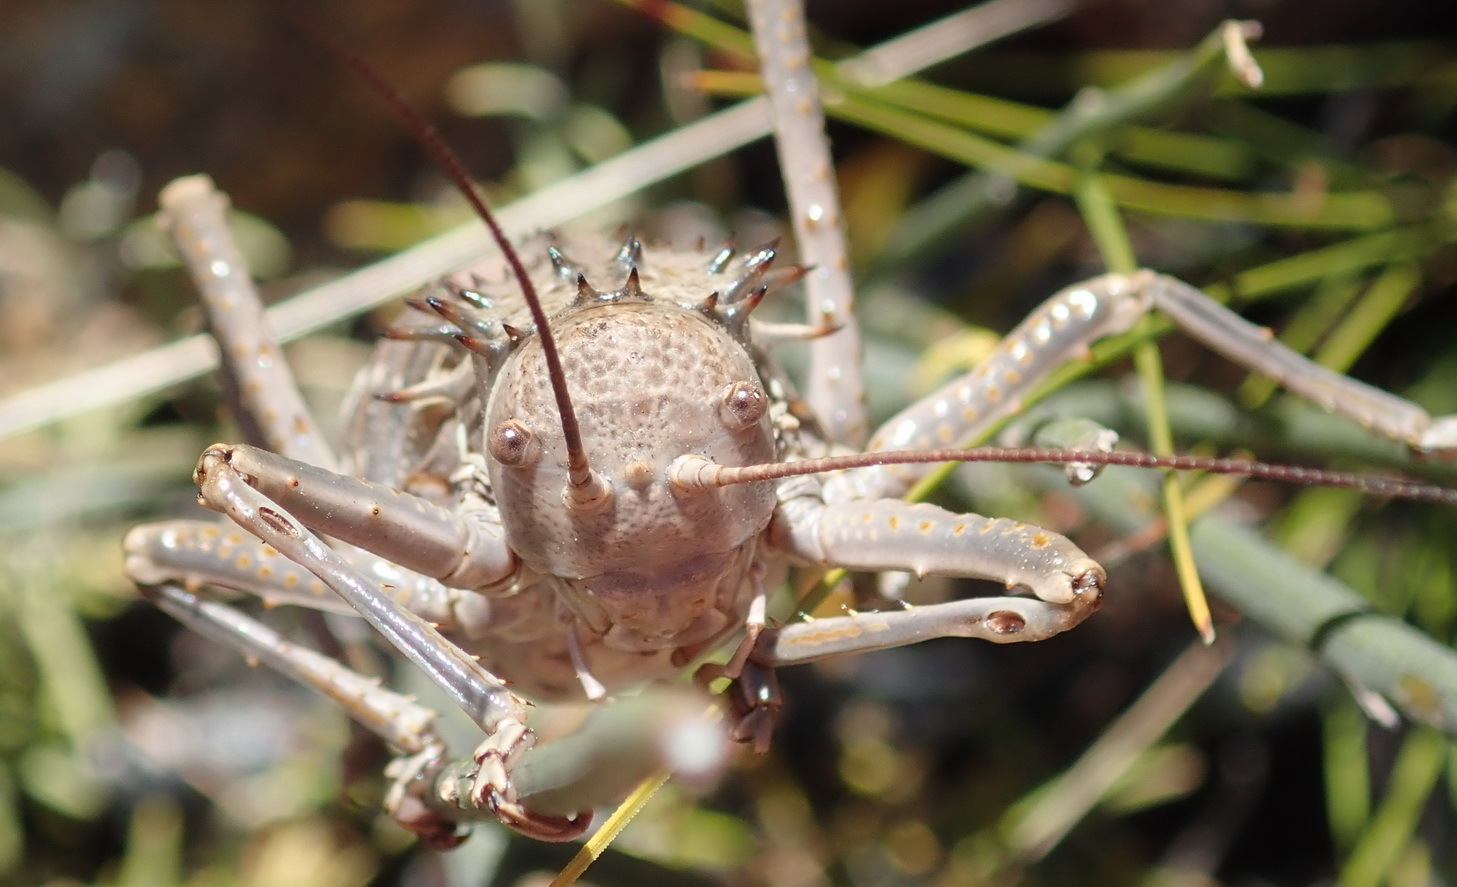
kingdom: Animalia
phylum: Arthropoda
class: Insecta
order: Orthoptera
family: Tettigoniidae
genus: Hetrodes
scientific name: Hetrodes pupus
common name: Koringkriek
